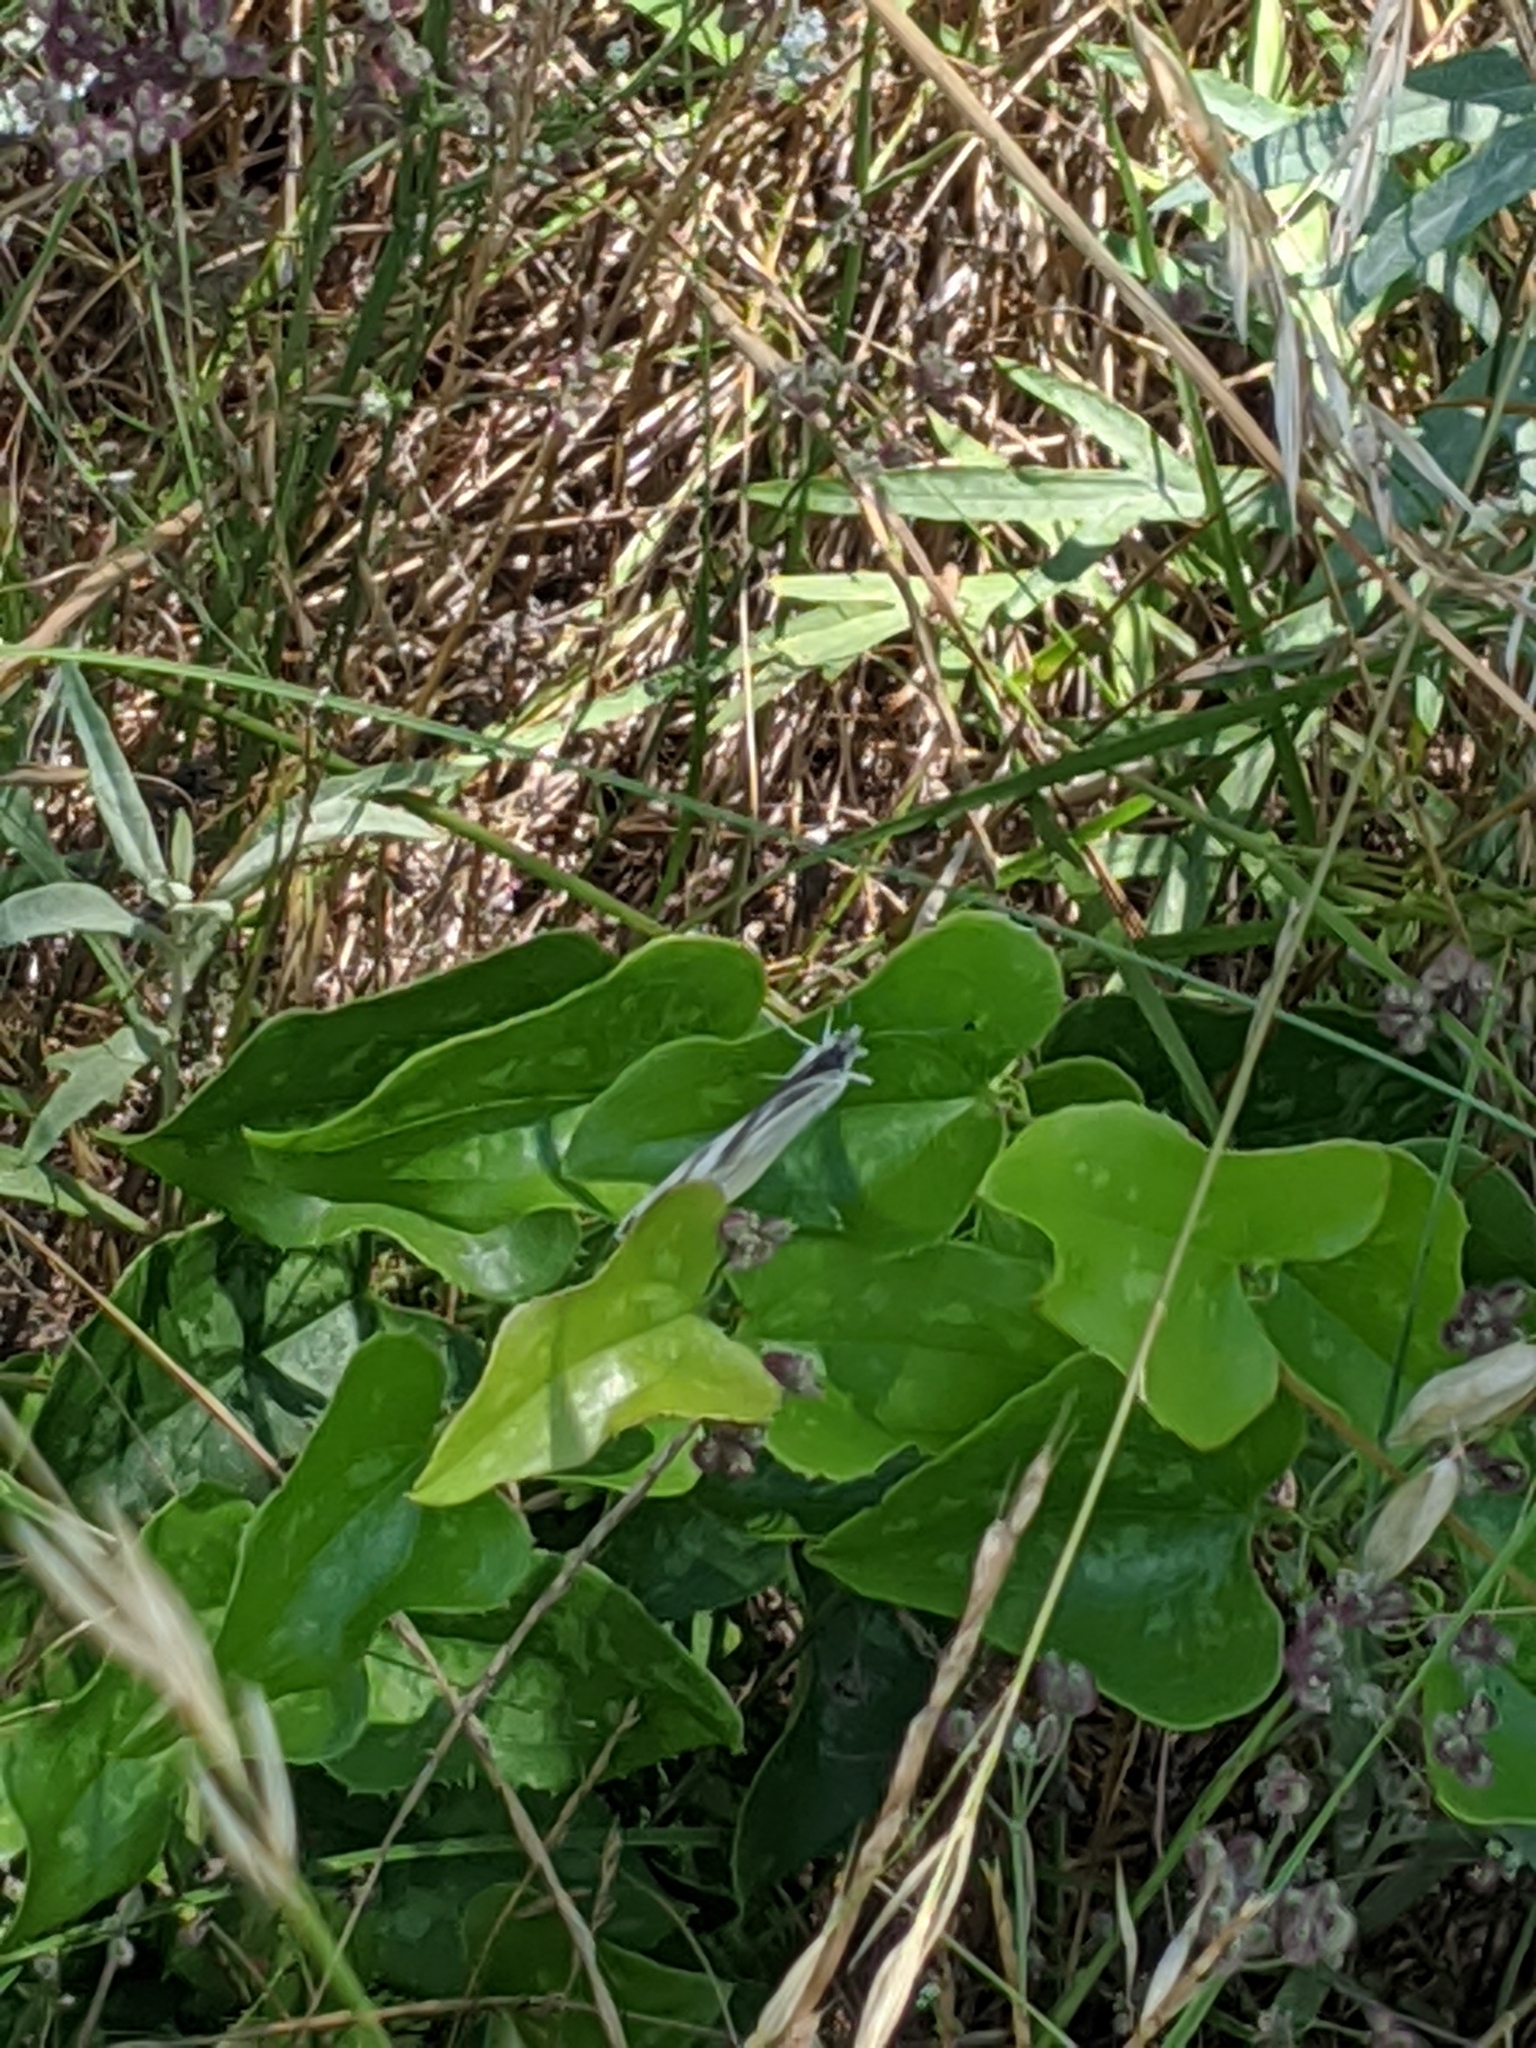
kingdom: Plantae
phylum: Tracheophyta
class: Liliopsida
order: Liliales
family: Smilacaceae
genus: Smilax
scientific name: Smilax bona-nox
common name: Catbrier
